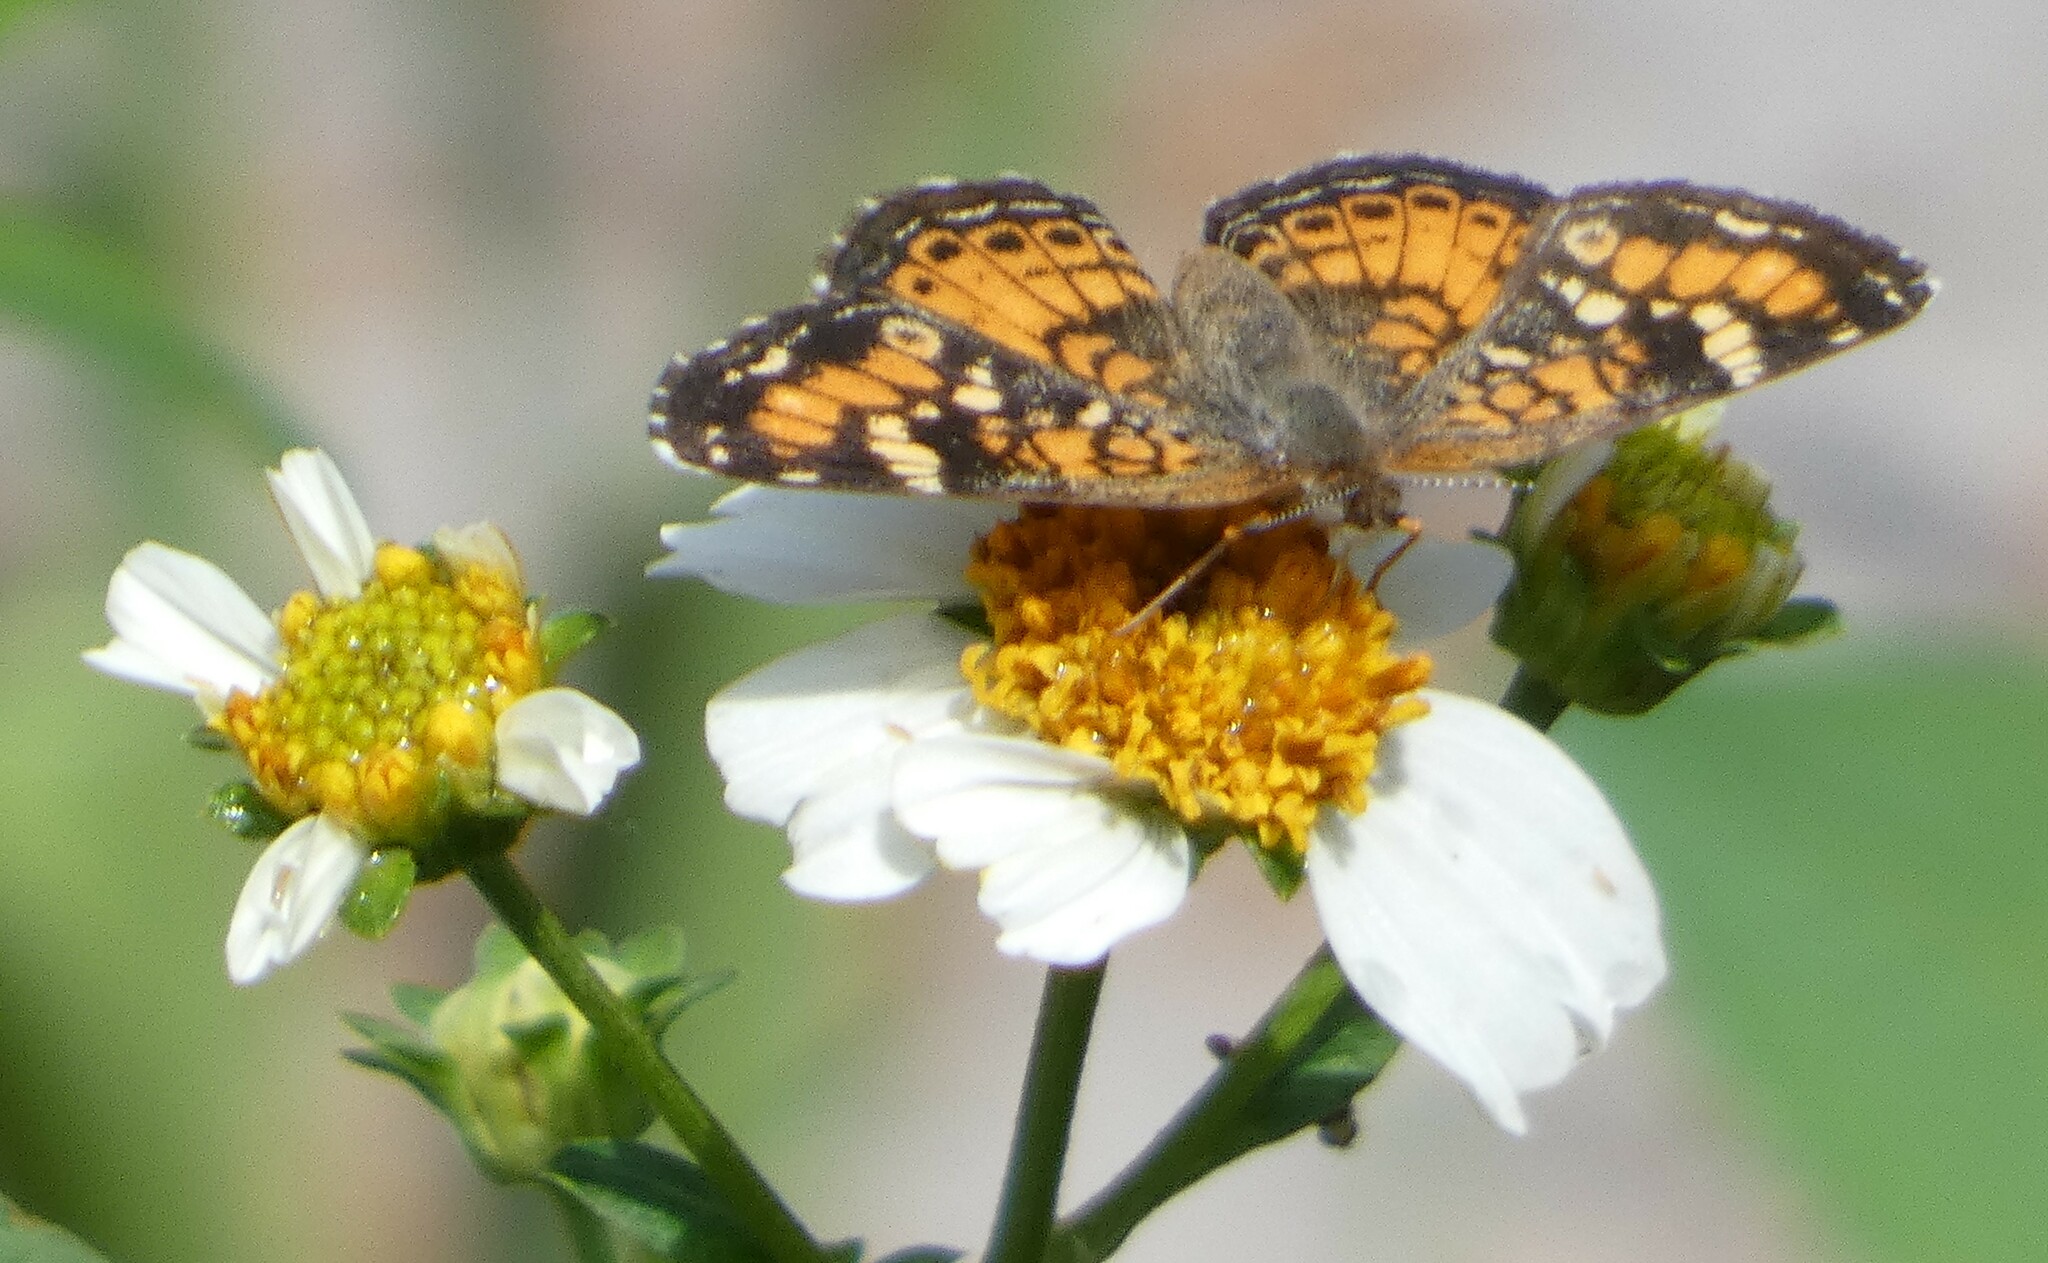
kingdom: Animalia
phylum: Arthropoda
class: Insecta
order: Lepidoptera
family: Nymphalidae
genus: Phyciodes
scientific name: Phyciodes phaon
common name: Phaon crescent
